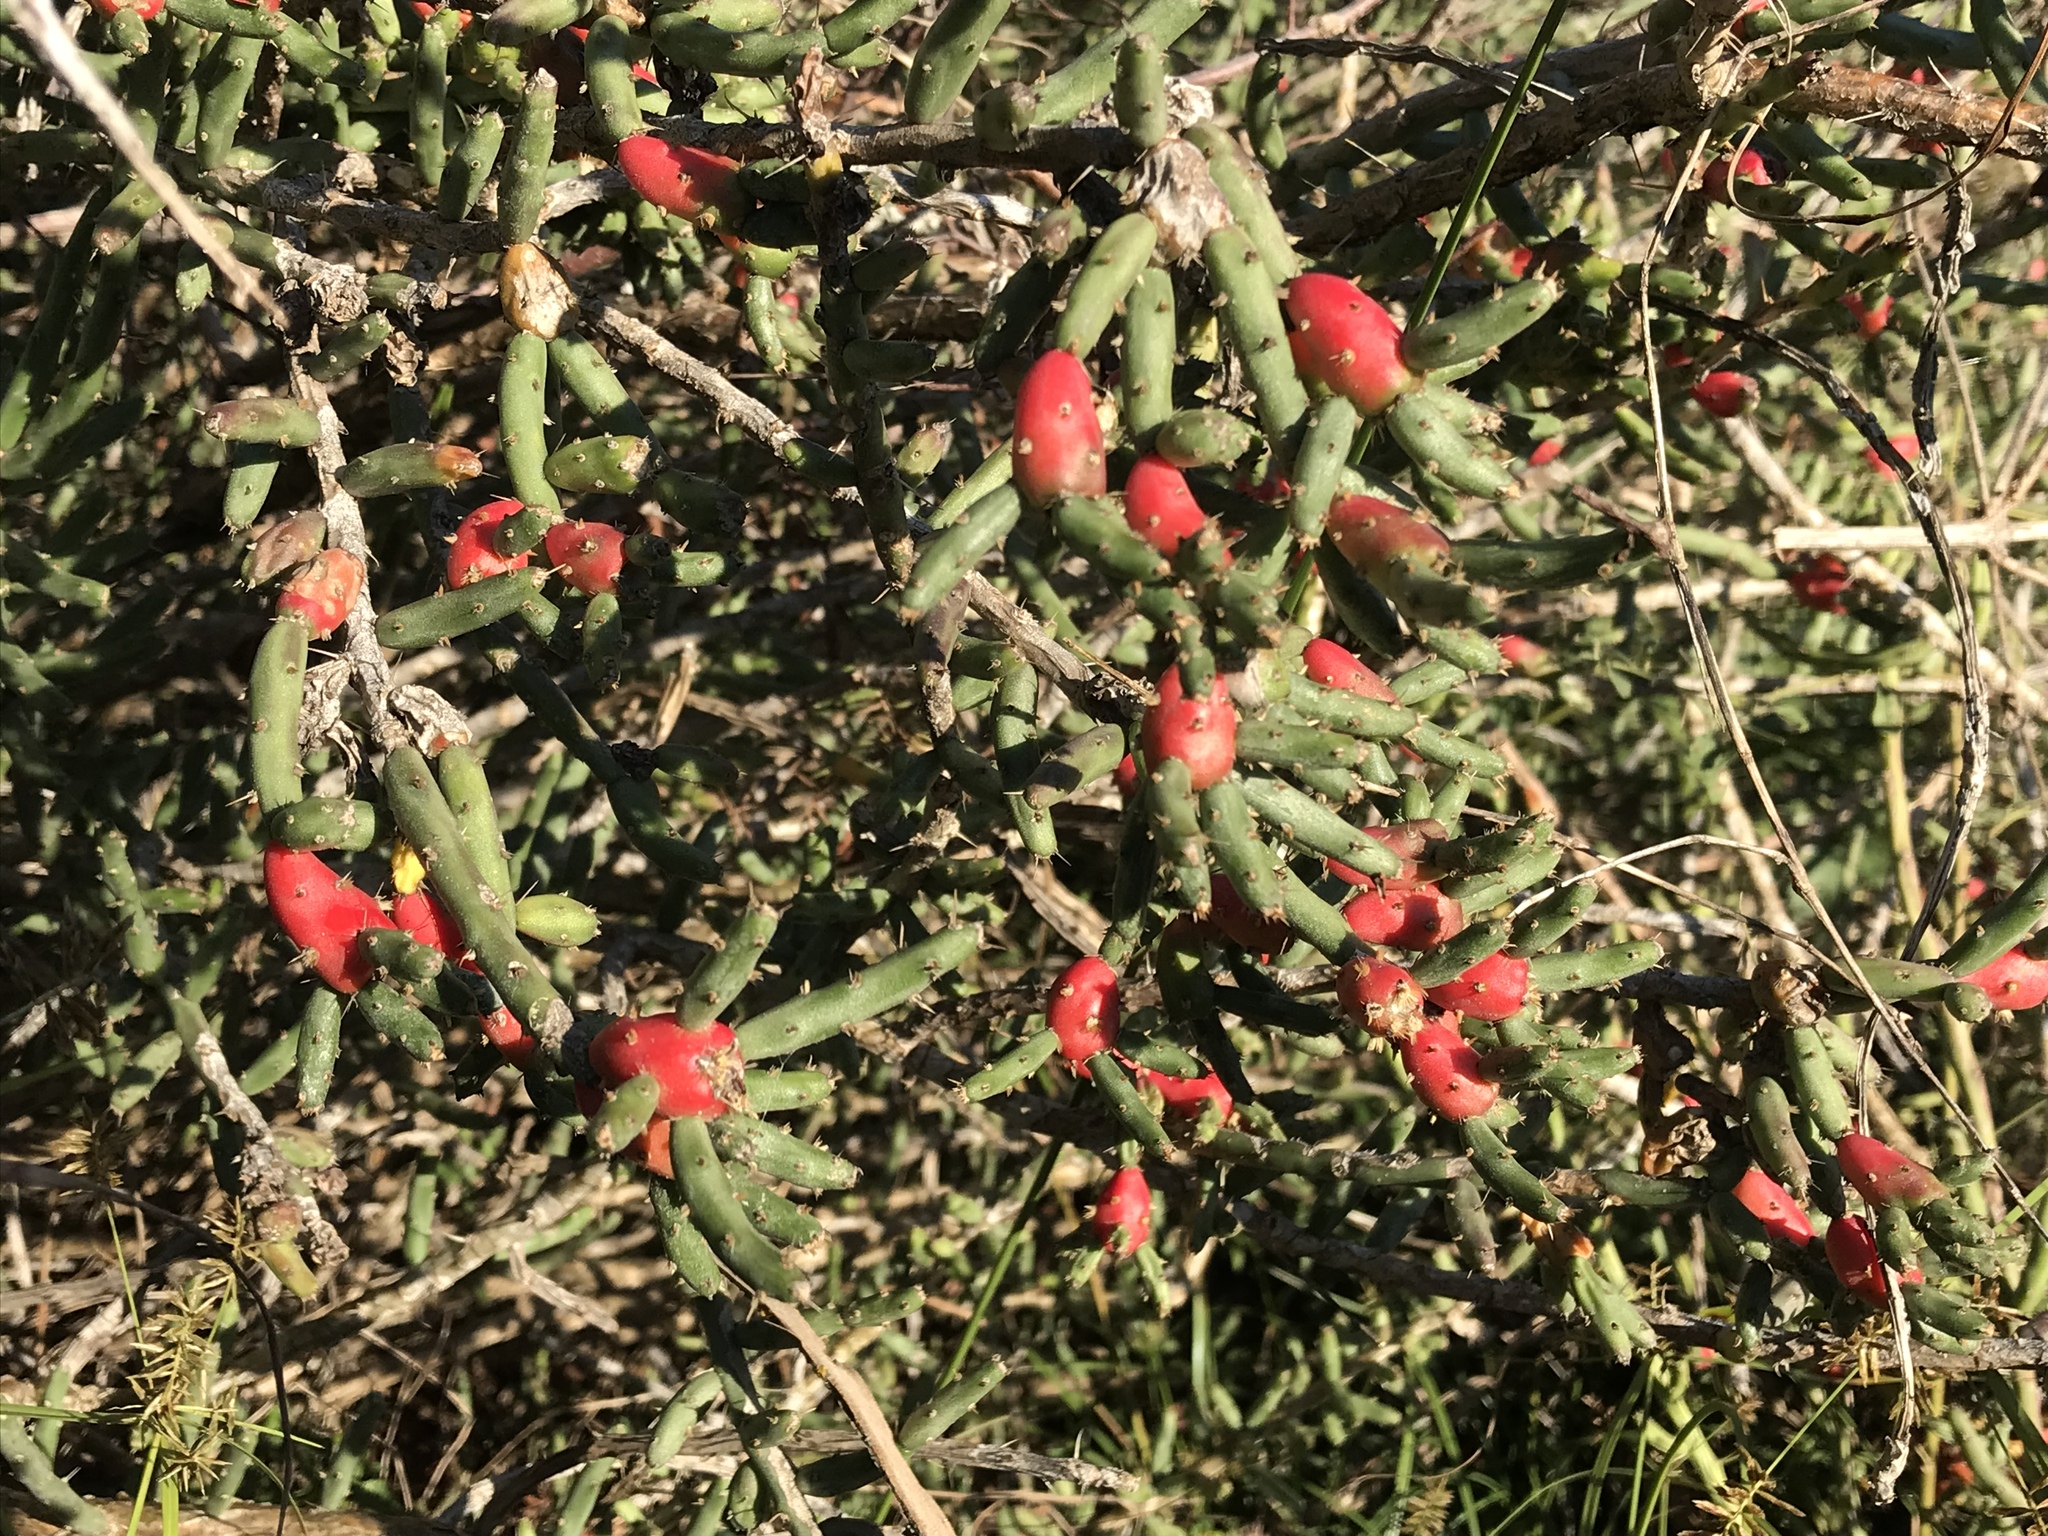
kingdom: Plantae
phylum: Tracheophyta
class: Magnoliopsida
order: Caryophyllales
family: Cactaceae
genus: Cylindropuntia
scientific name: Cylindropuntia leptocaulis
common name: Christmas cactus
